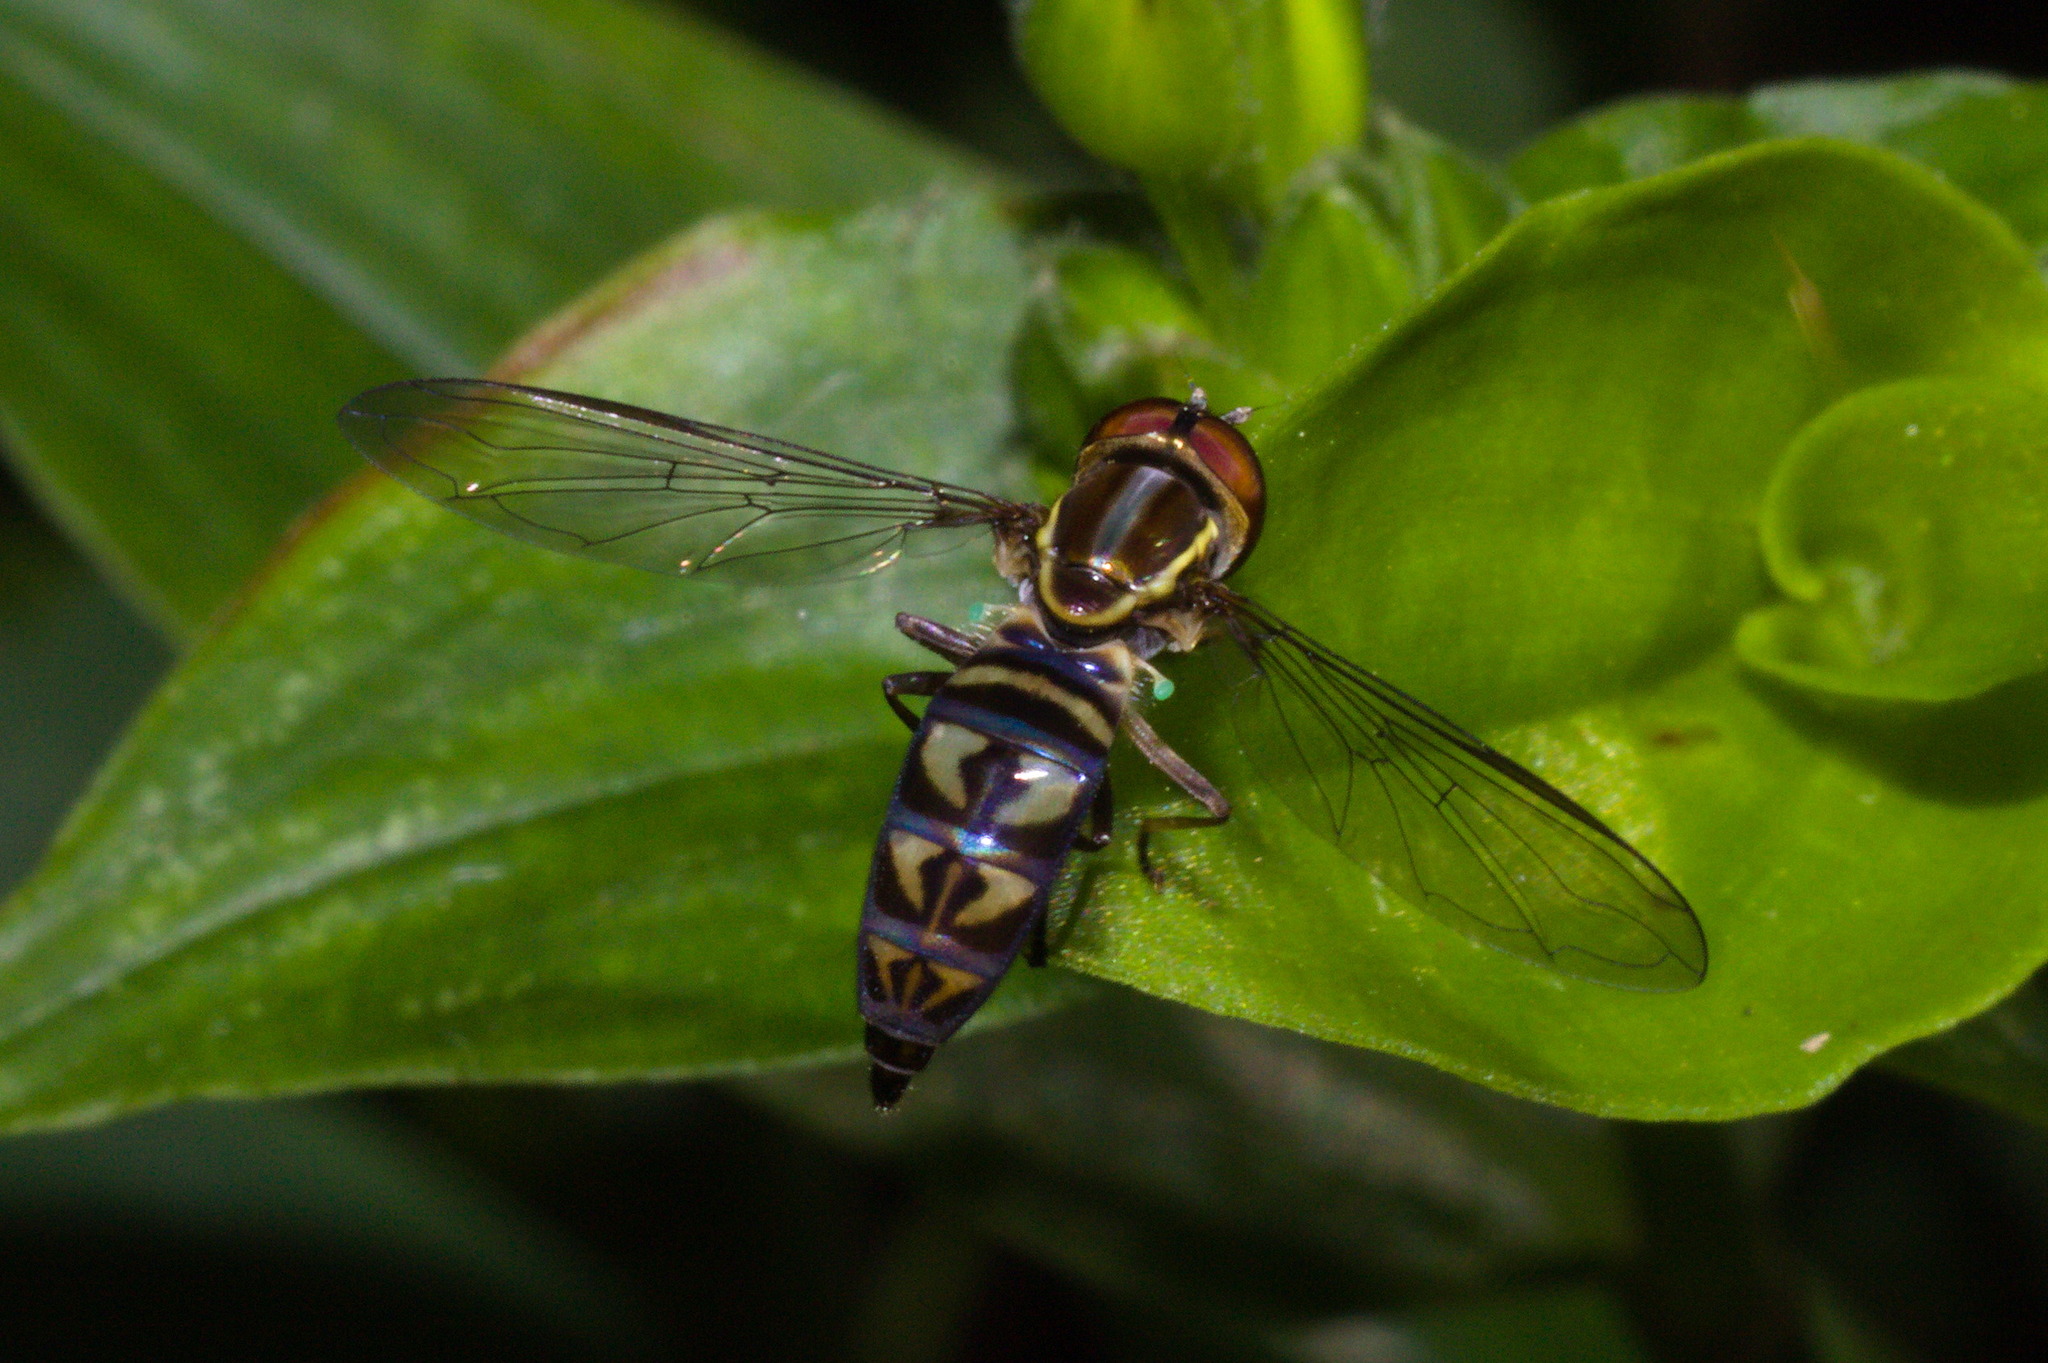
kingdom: Animalia
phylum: Arthropoda
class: Insecta
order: Diptera
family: Syrphidae
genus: Toxomerus
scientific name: Toxomerus tibicen
